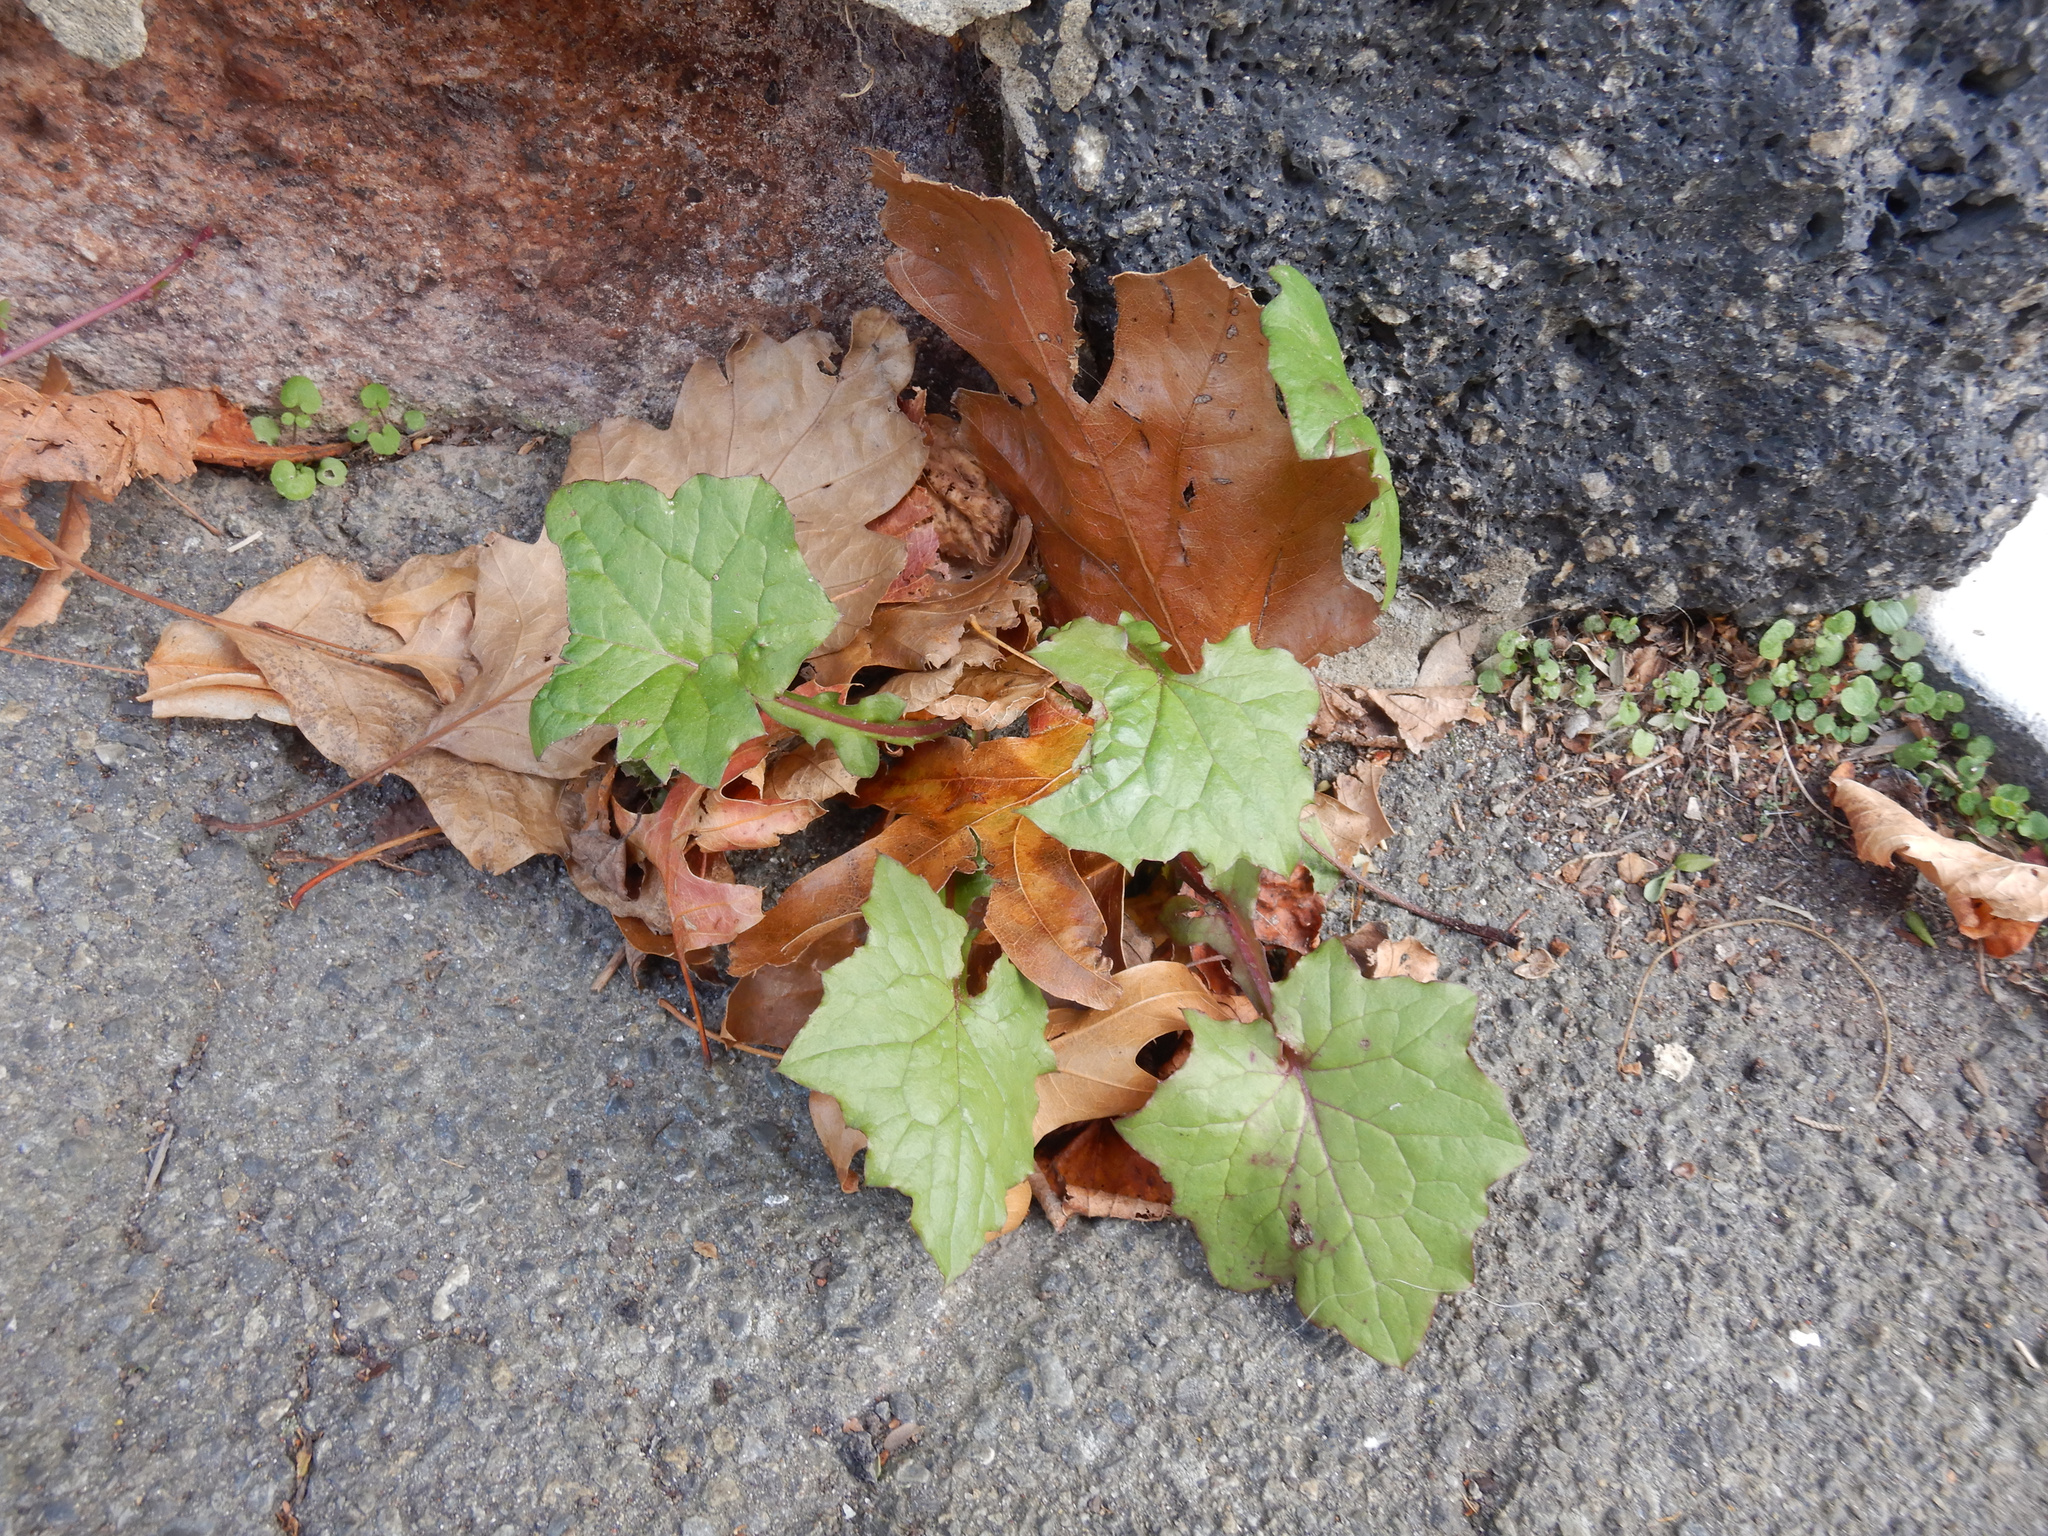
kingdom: Plantae
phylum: Tracheophyta
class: Magnoliopsida
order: Asterales
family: Asteraceae
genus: Mycelis
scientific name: Mycelis muralis
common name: Wall lettuce
